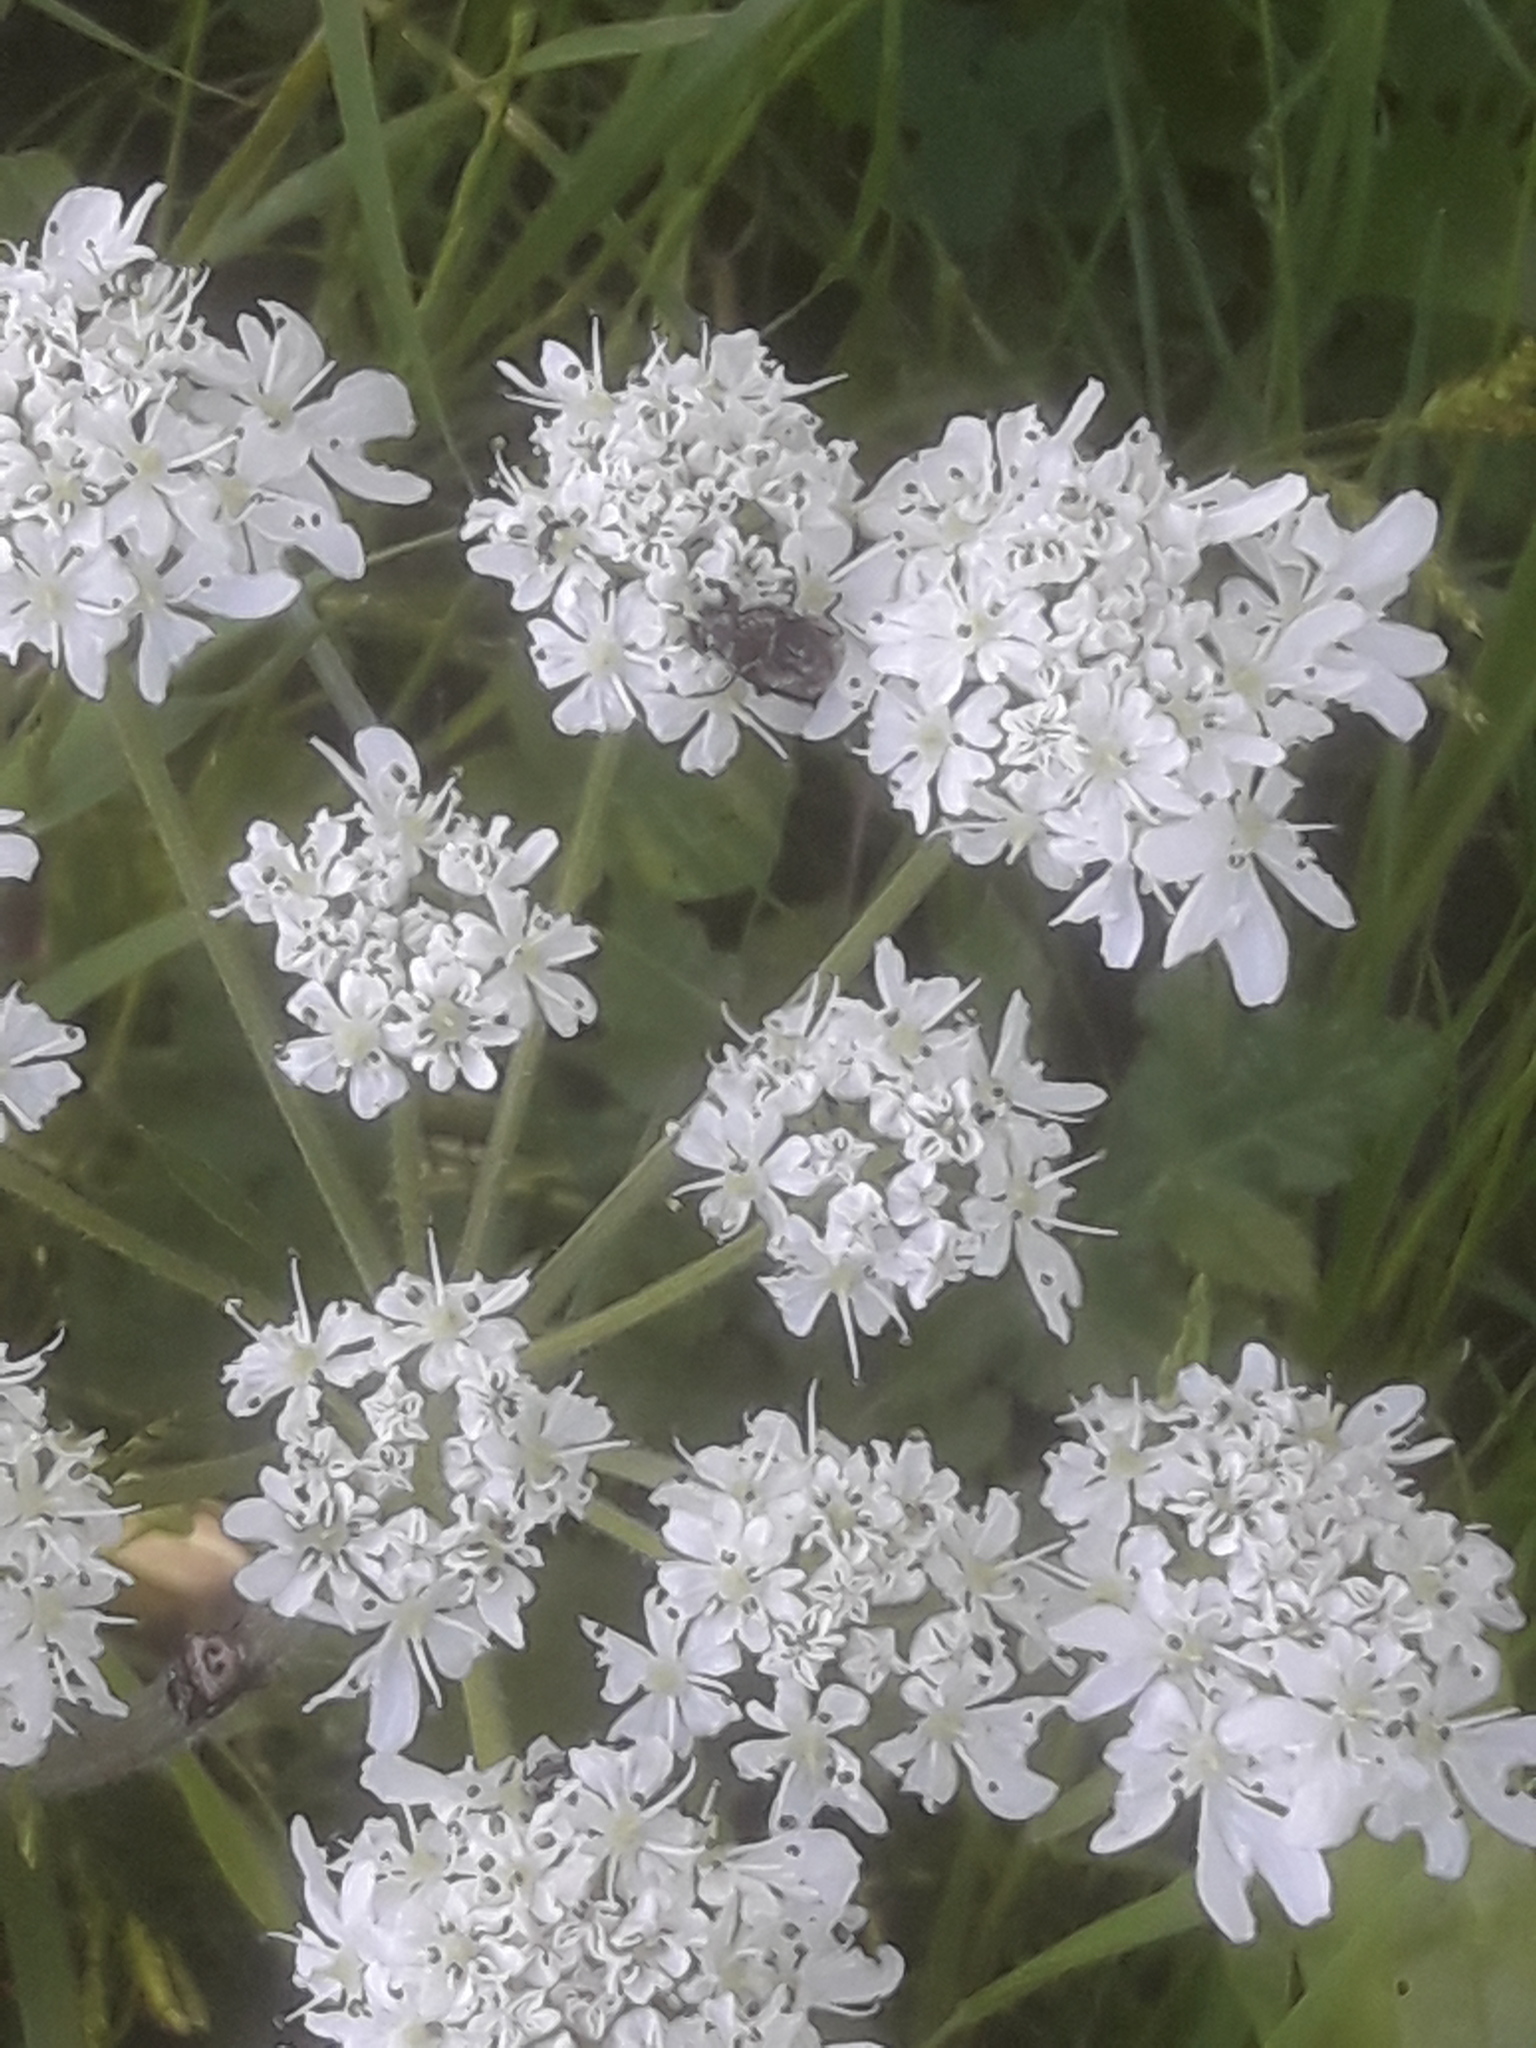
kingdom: Animalia
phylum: Arthropoda
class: Insecta
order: Coleoptera
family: Scarabaeidae
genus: Valgus
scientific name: Valgus hemipterus
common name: Bug flower chafer
